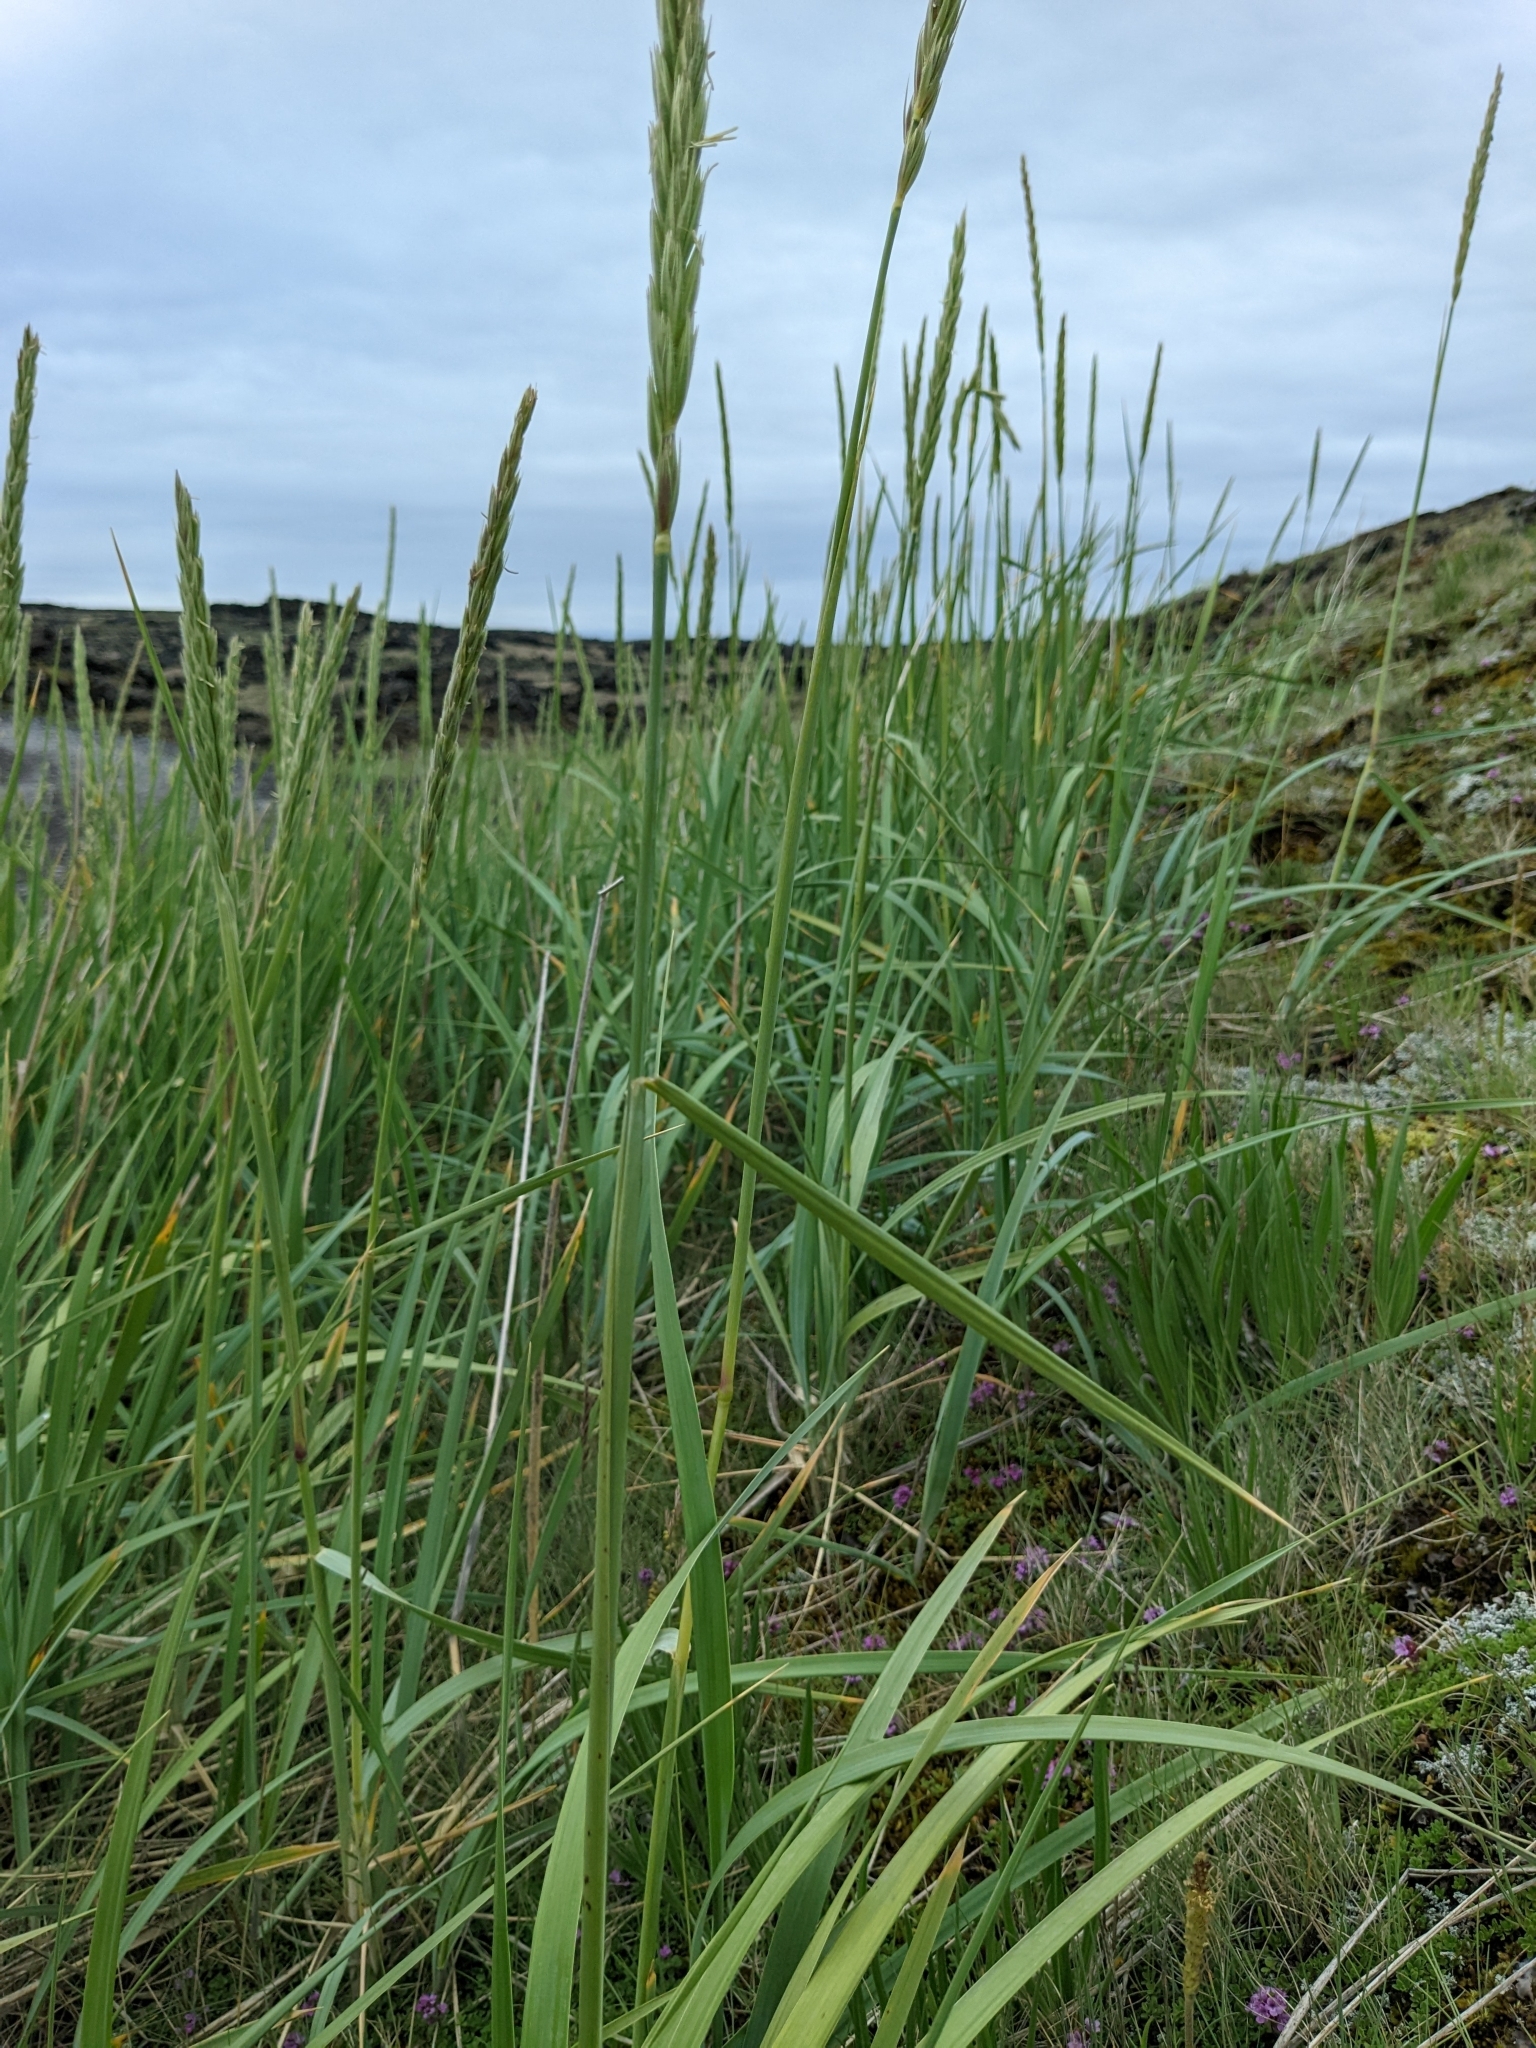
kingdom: Plantae
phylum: Tracheophyta
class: Liliopsida
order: Poales
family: Poaceae
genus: Leymus
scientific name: Leymus arenarius
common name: Lyme-grass
